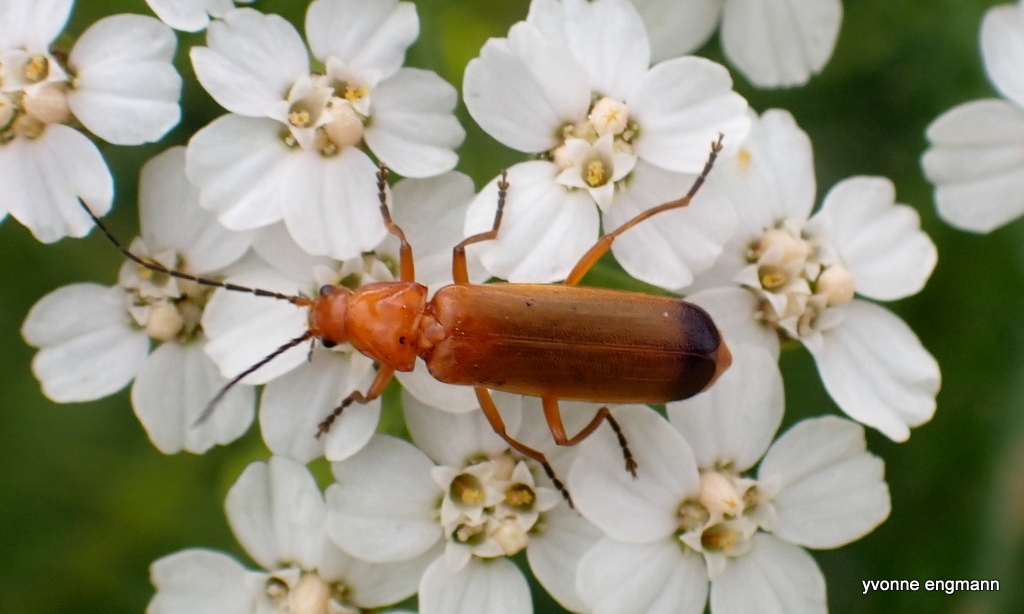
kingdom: Animalia
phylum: Arthropoda
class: Insecta
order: Coleoptera
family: Cantharidae
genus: Rhagonycha
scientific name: Rhagonycha fulva
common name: Common red soldier beetle
